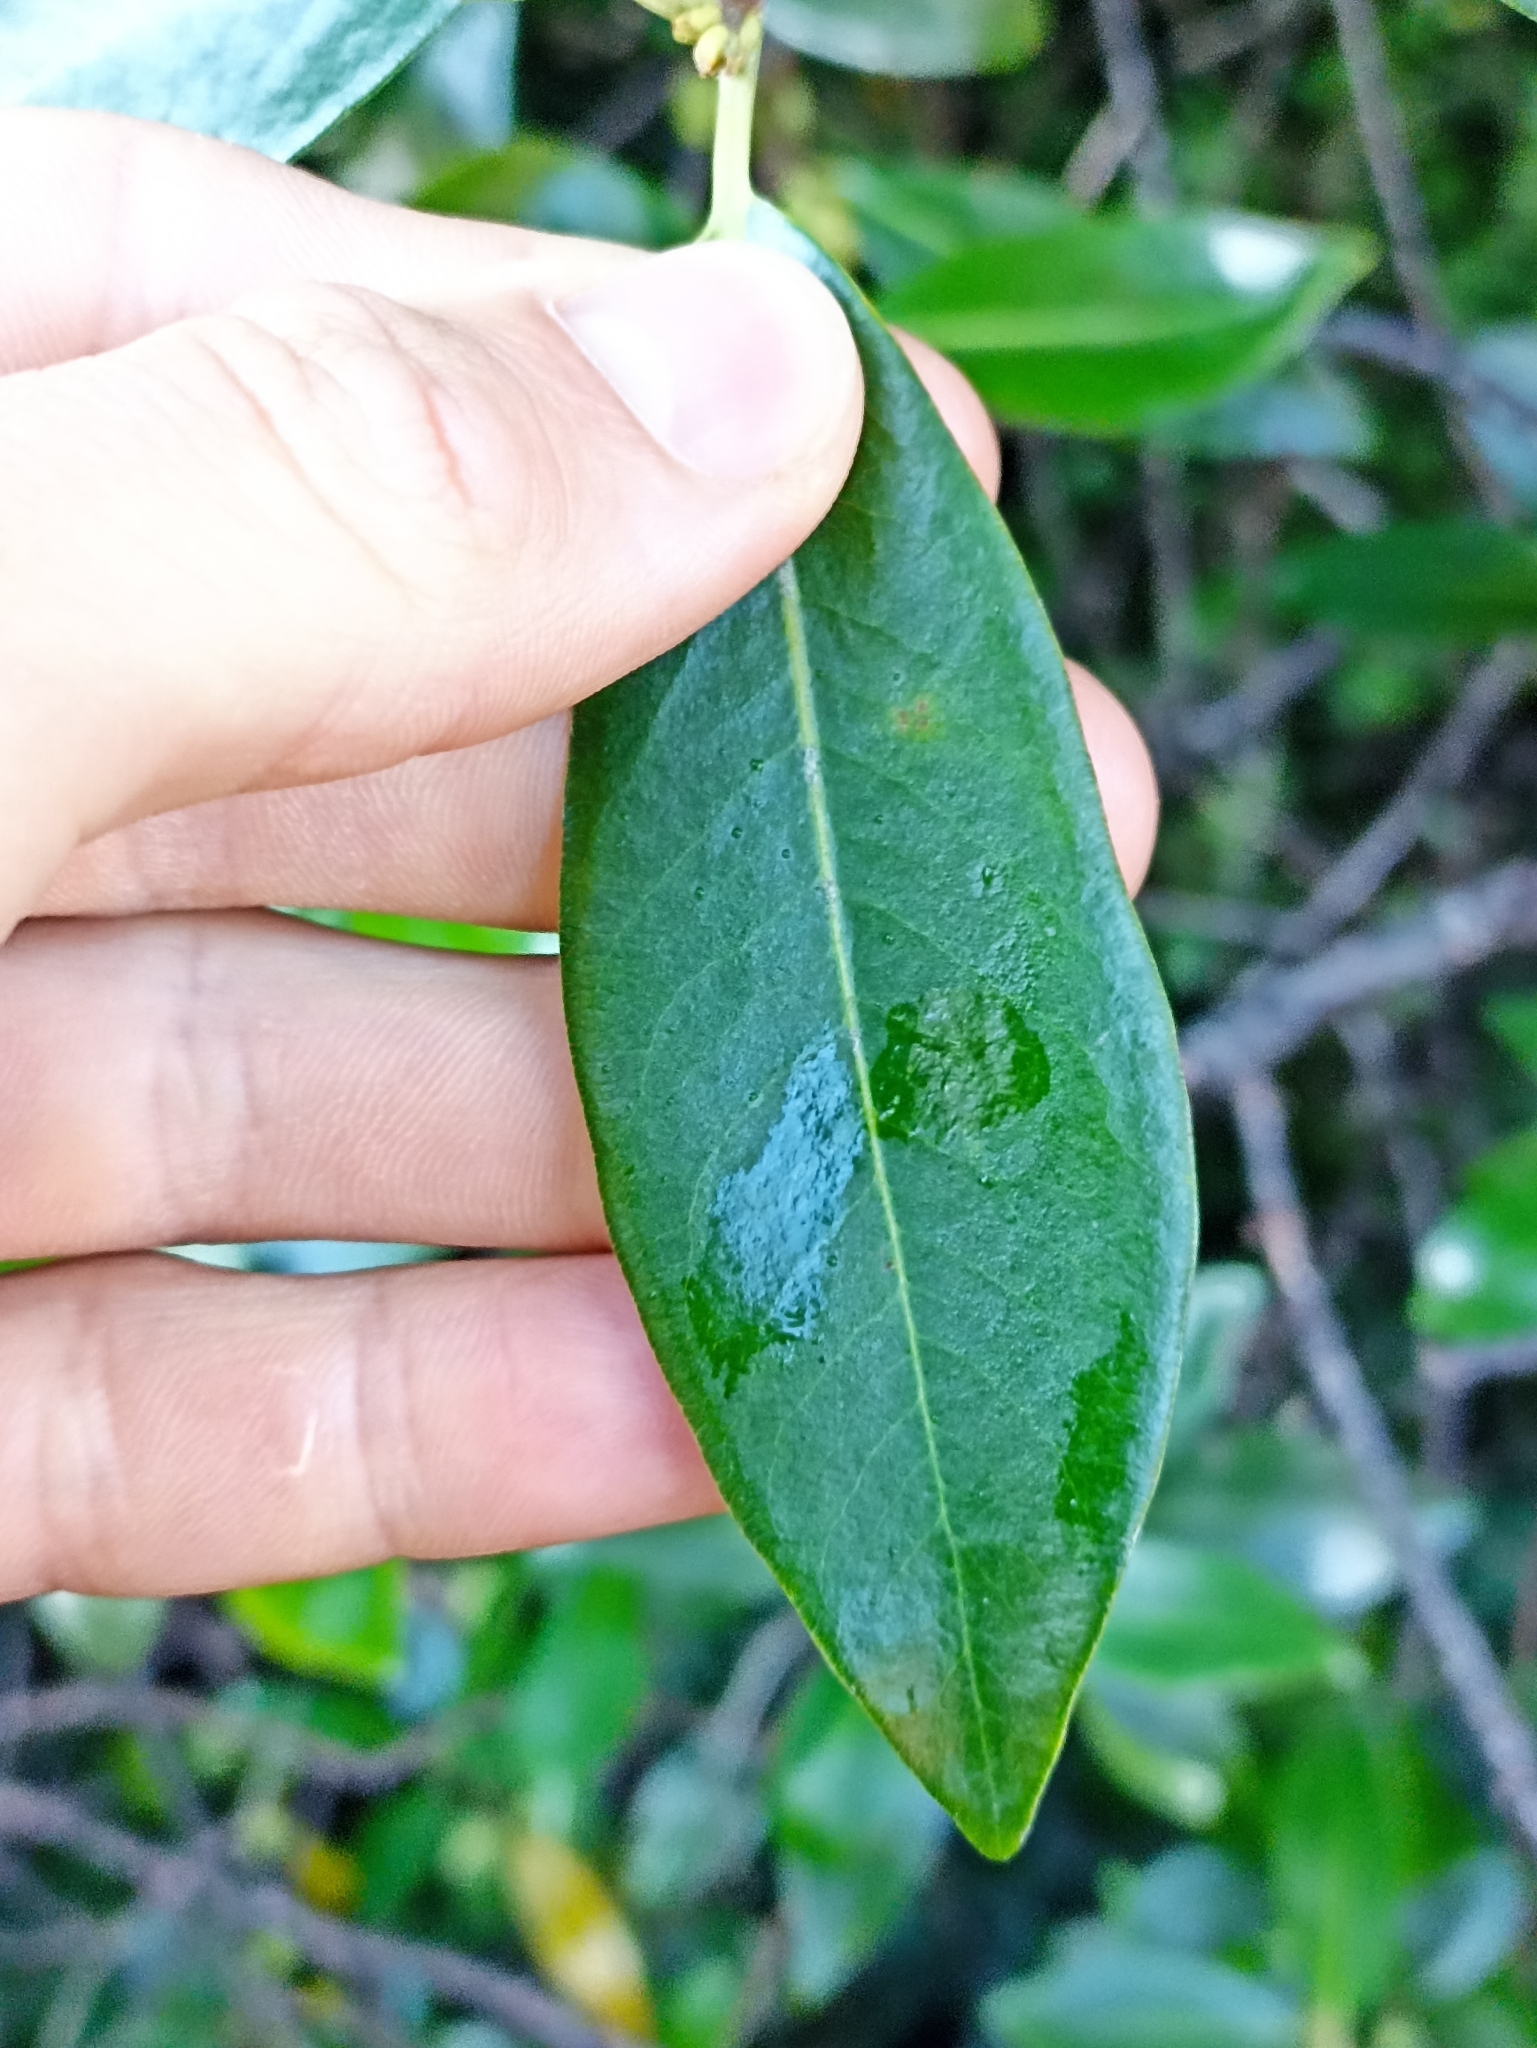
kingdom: Plantae
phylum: Tracheophyta
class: Magnoliopsida
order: Apiales
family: Pittosporaceae
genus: Pittosporum
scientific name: Pittosporum colensoi
